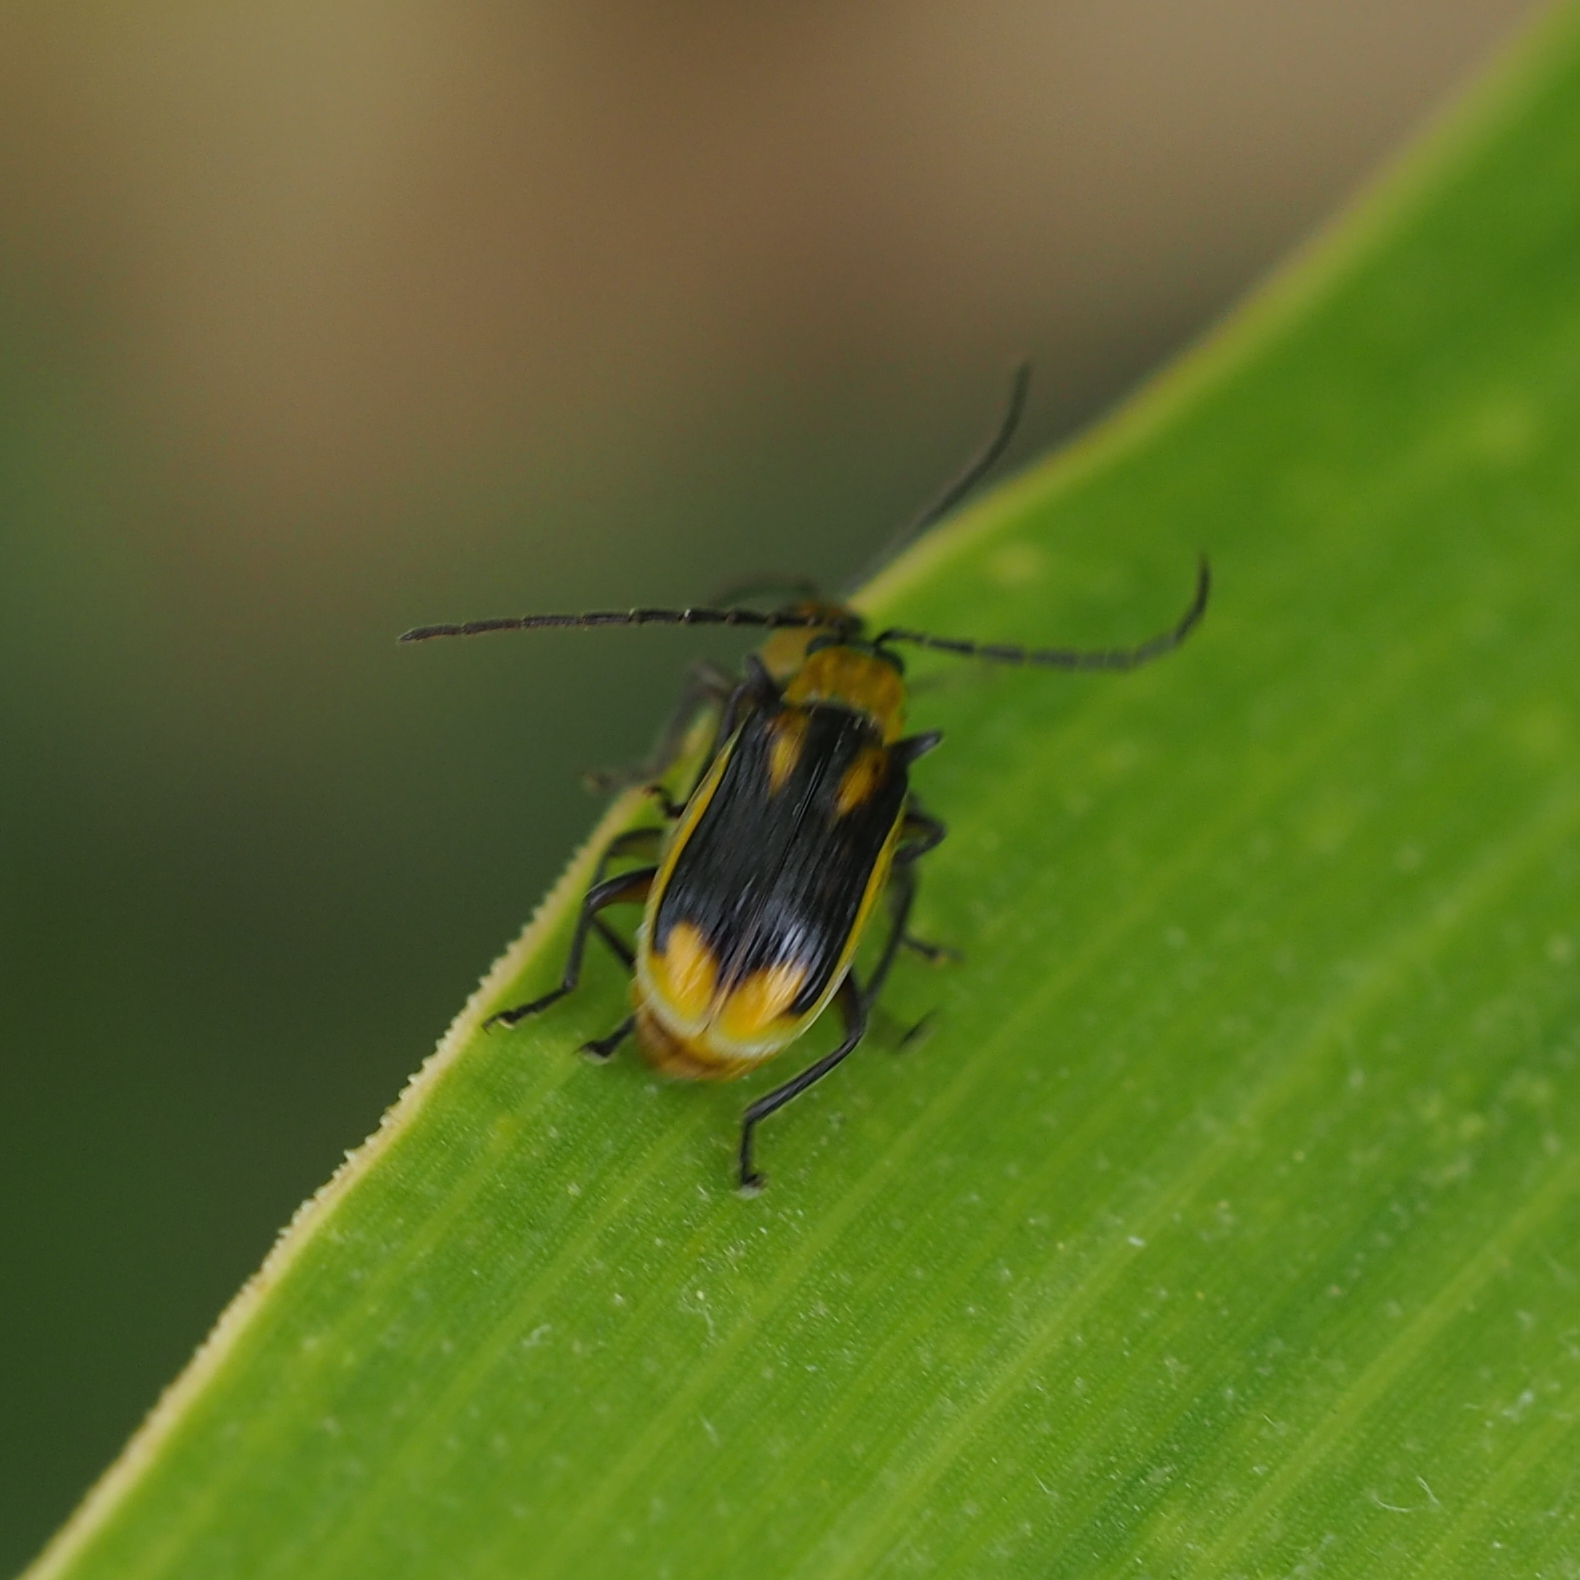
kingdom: Animalia
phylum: Arthropoda
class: Insecta
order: Coleoptera
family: Chrysomelidae
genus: Diabrotica
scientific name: Diabrotica virgifera
